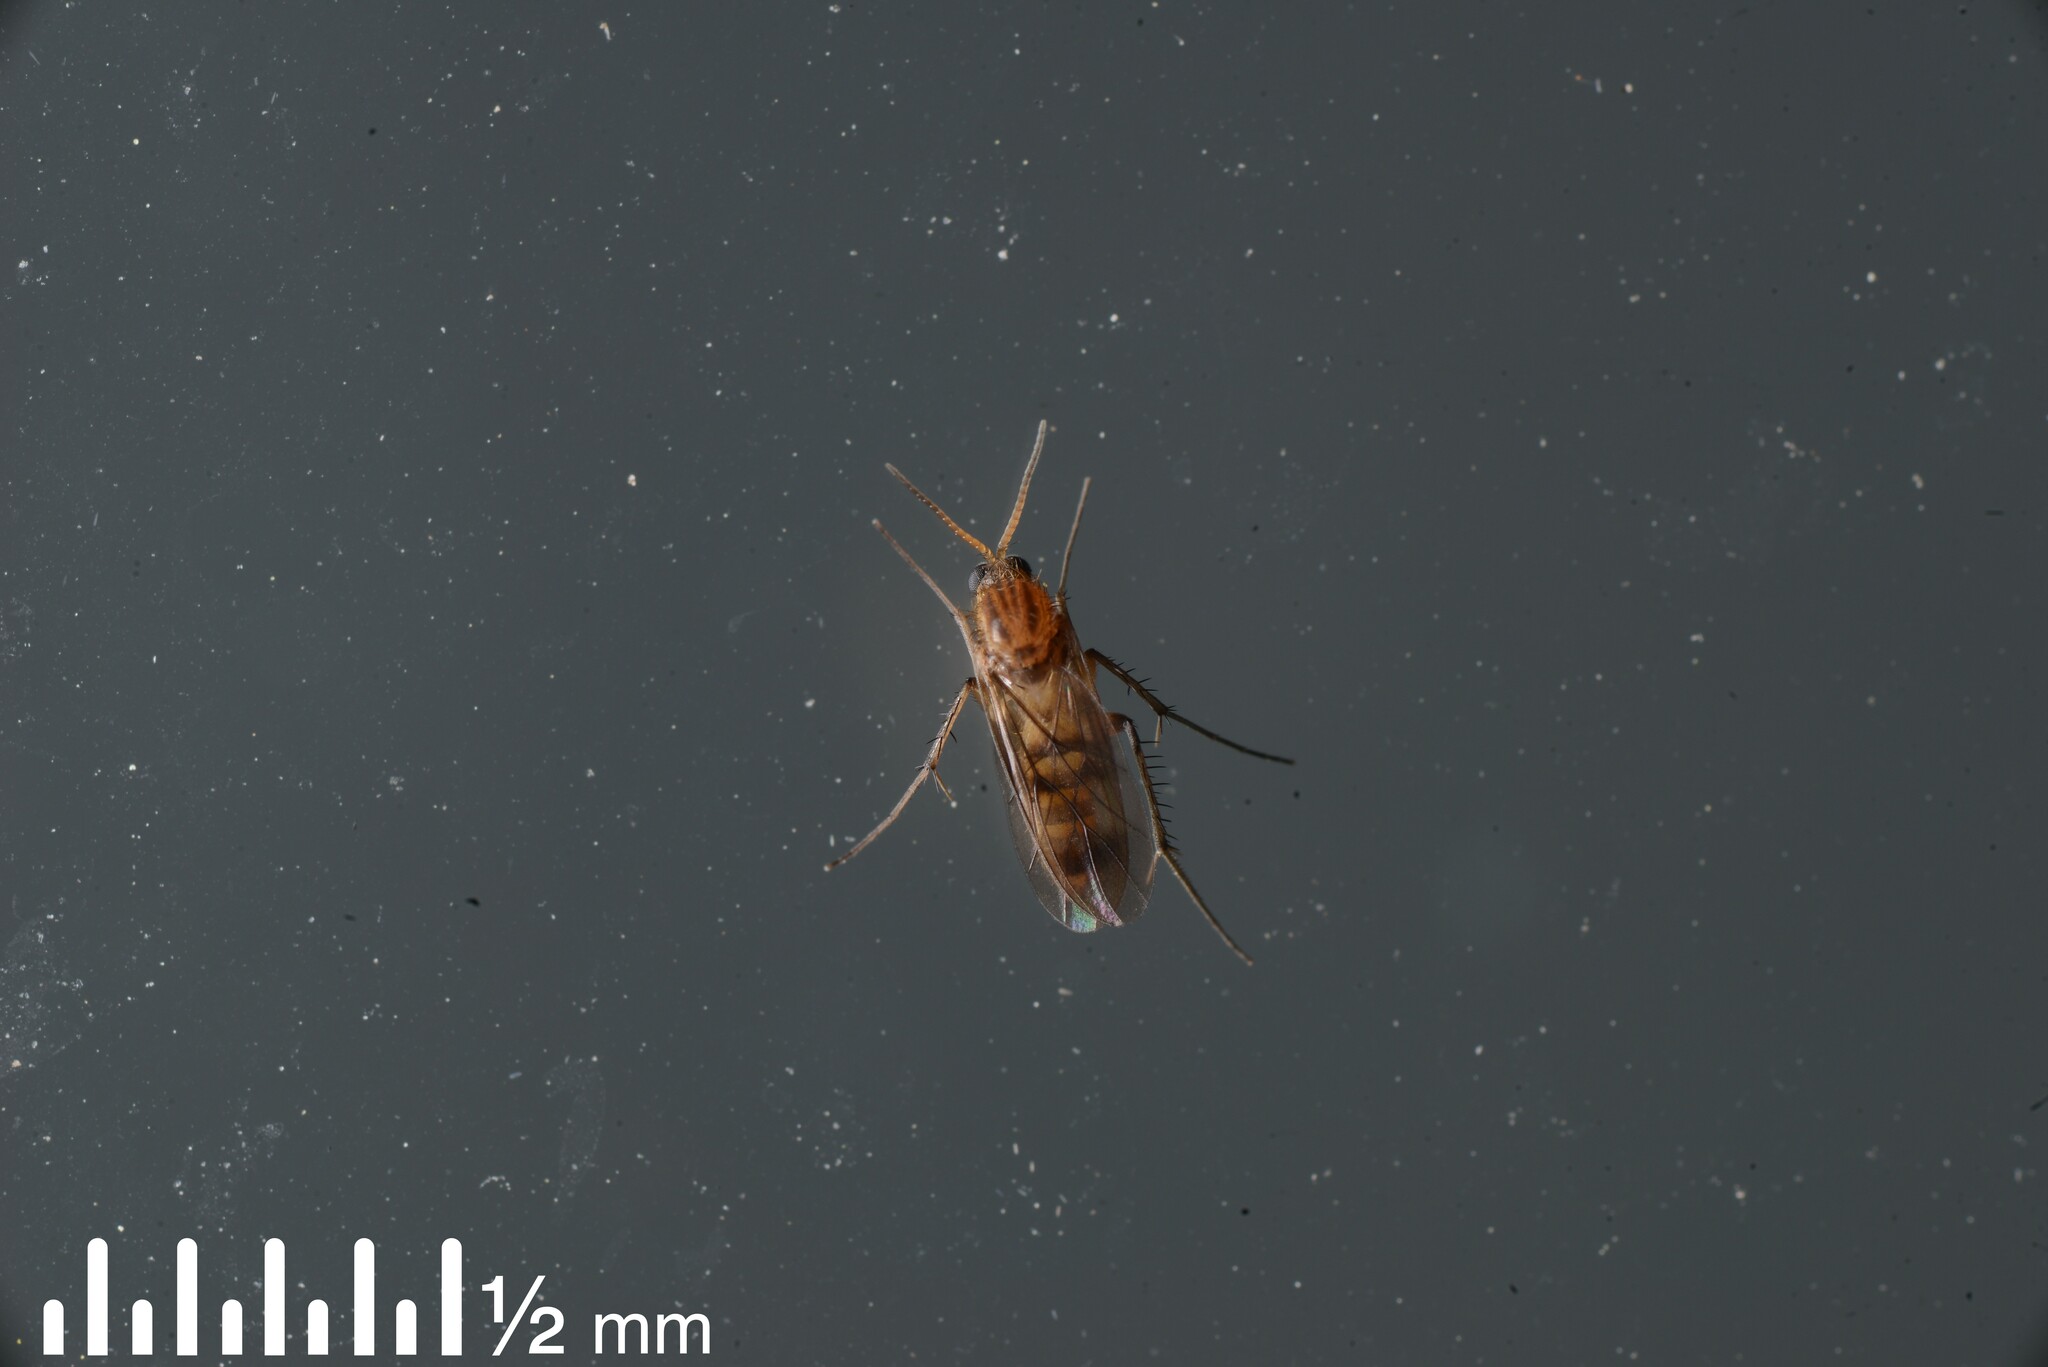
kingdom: Animalia
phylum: Arthropoda
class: Insecta
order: Diptera
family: Mycetophilidae
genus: Anomalomyia
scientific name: Anomalomyia guttata
